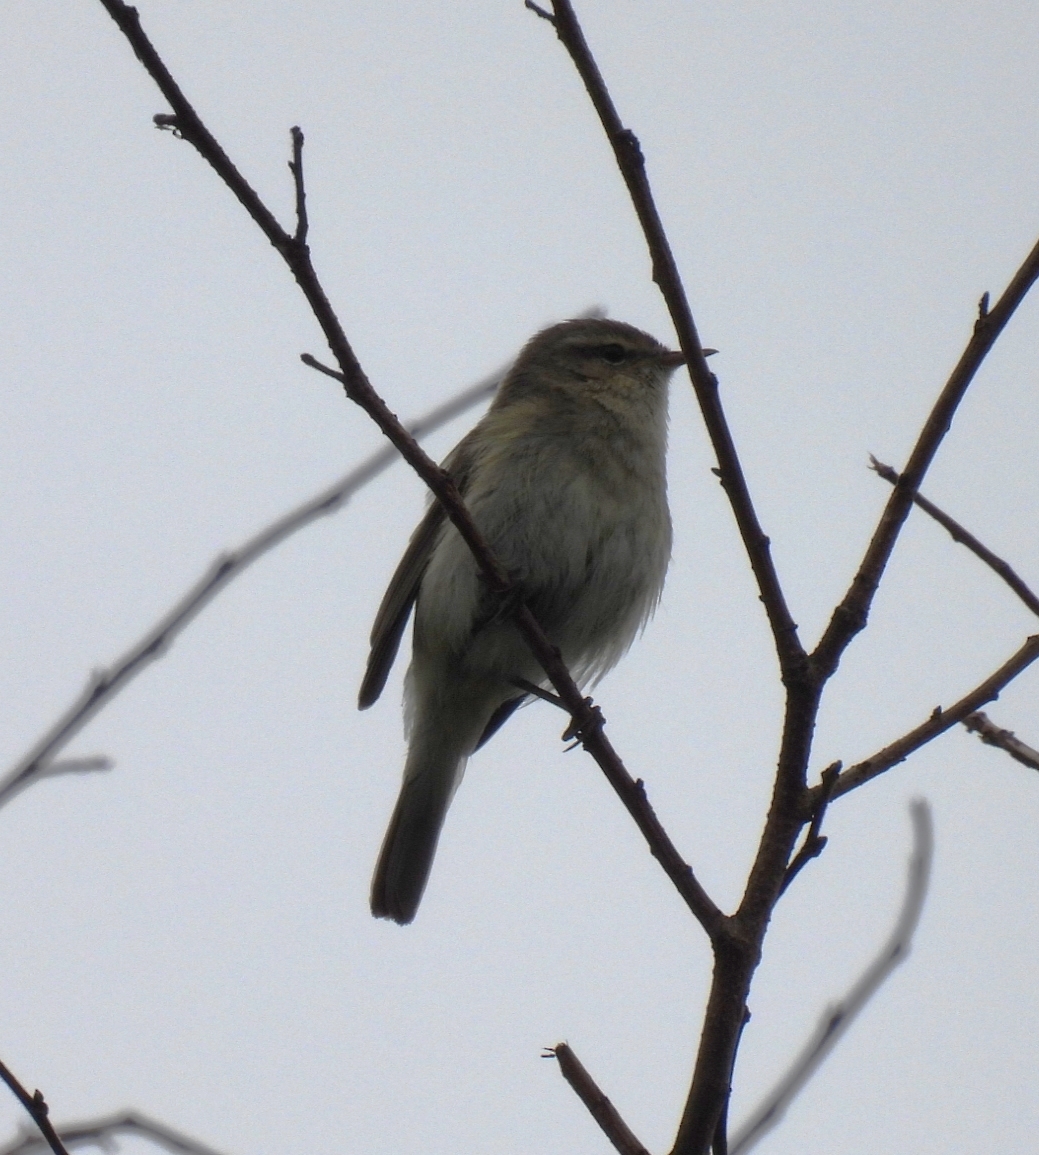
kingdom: Animalia
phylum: Chordata
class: Aves
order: Passeriformes
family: Phylloscopidae
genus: Phylloscopus
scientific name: Phylloscopus collybita
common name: Common chiffchaff
